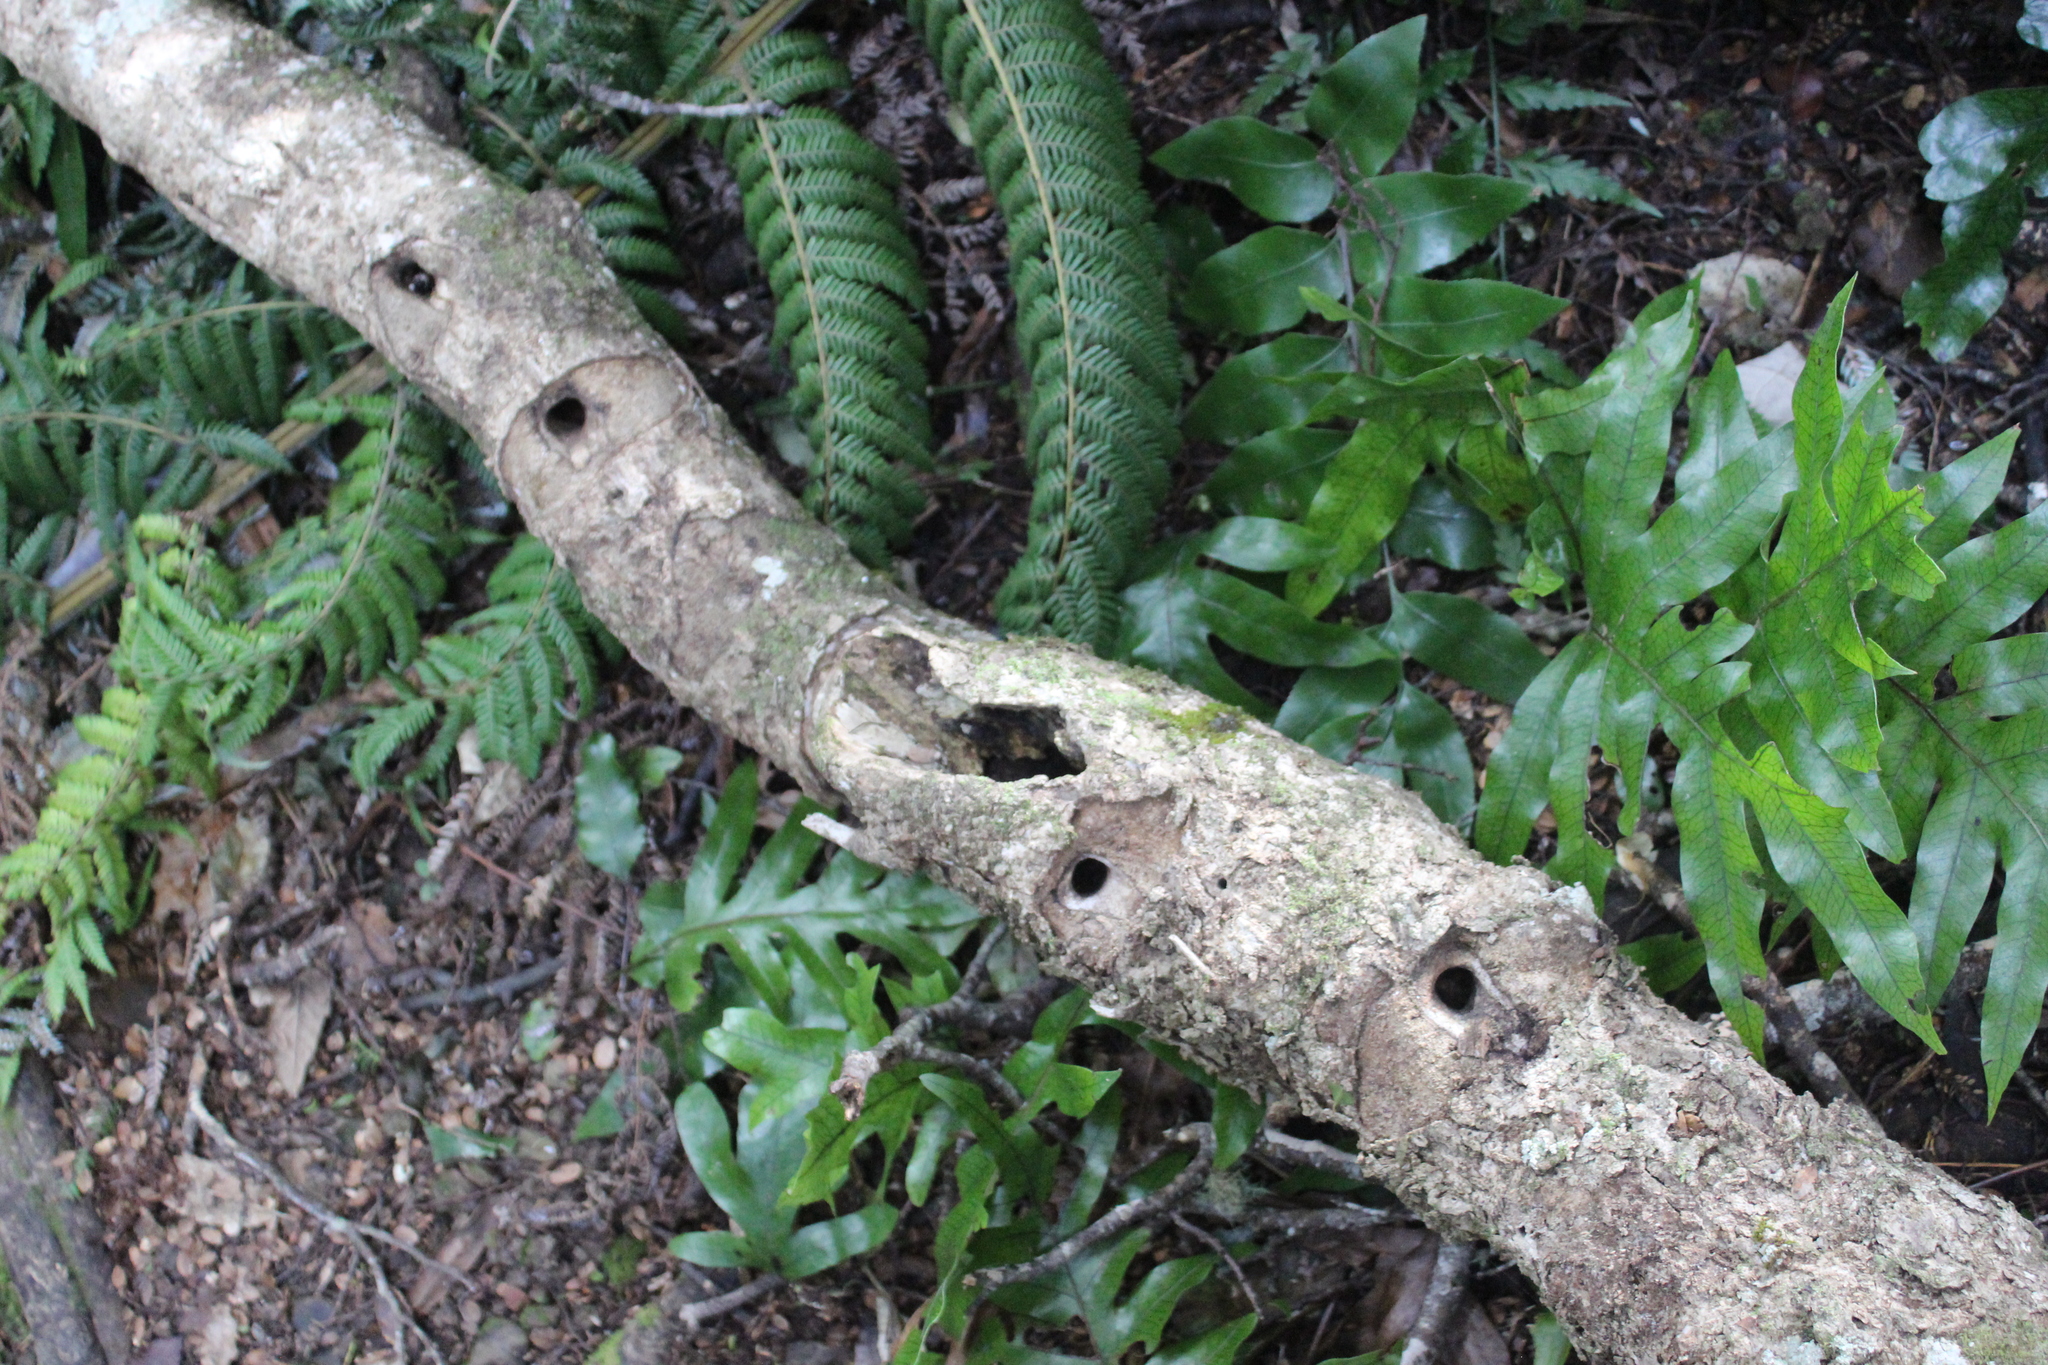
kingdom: Animalia
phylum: Arthropoda
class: Insecta
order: Lepidoptera
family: Hepialidae
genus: Aenetus
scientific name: Aenetus virescens
